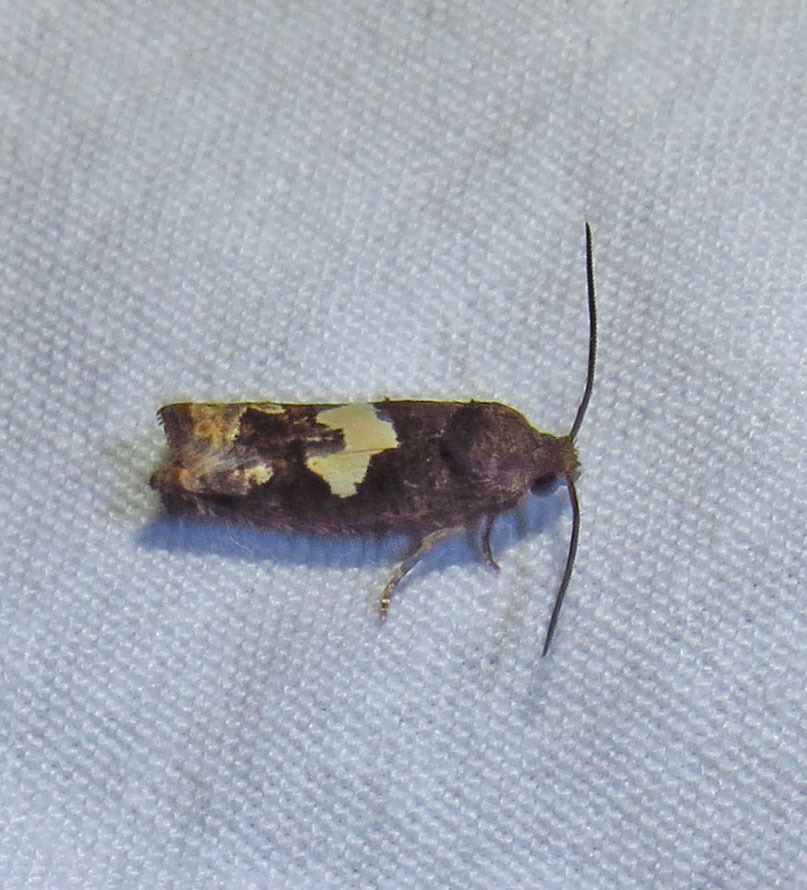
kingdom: Animalia
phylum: Arthropoda
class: Insecta
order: Lepidoptera
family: Tortricidae
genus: Epiblema
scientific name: Epiblema otiosana
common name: Bidens borer moth
